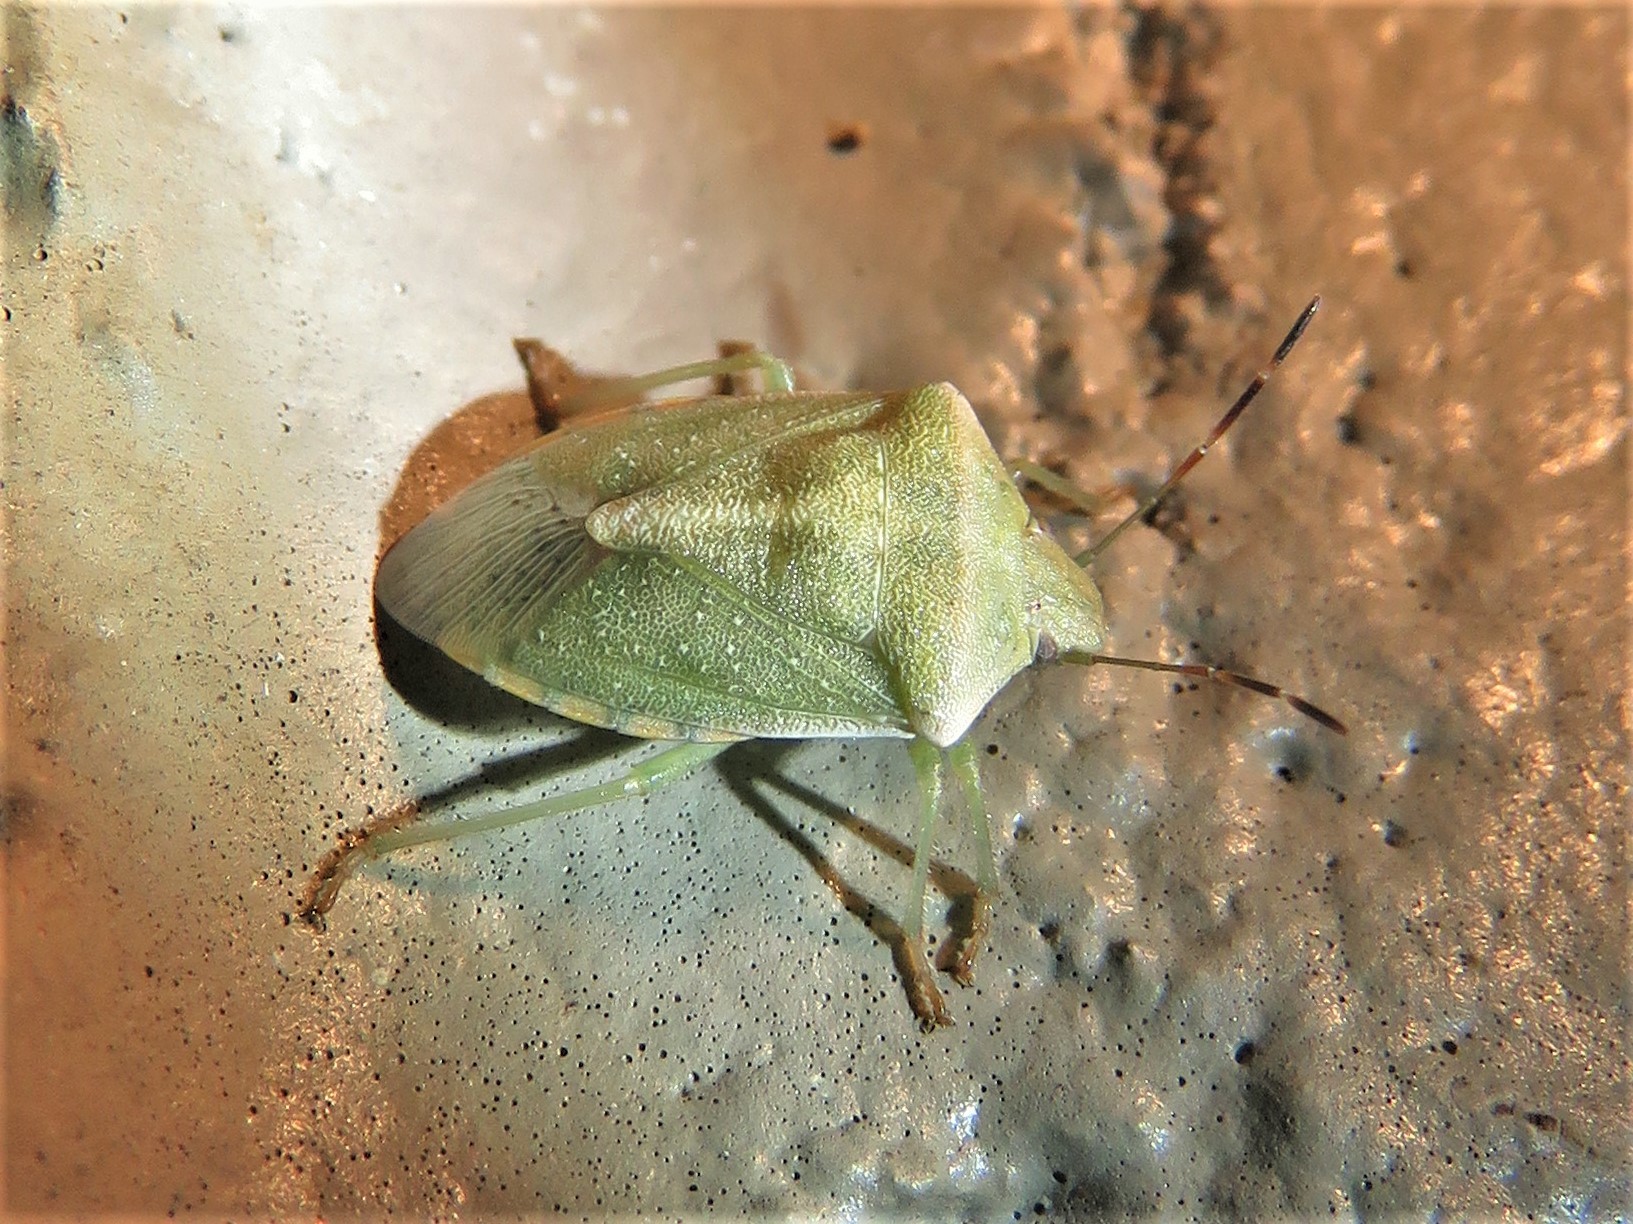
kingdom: Animalia
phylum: Arthropoda
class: Insecta
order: Hemiptera
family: Pentatomidae
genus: Thyanta
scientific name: Thyanta custator
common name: Stink bug
